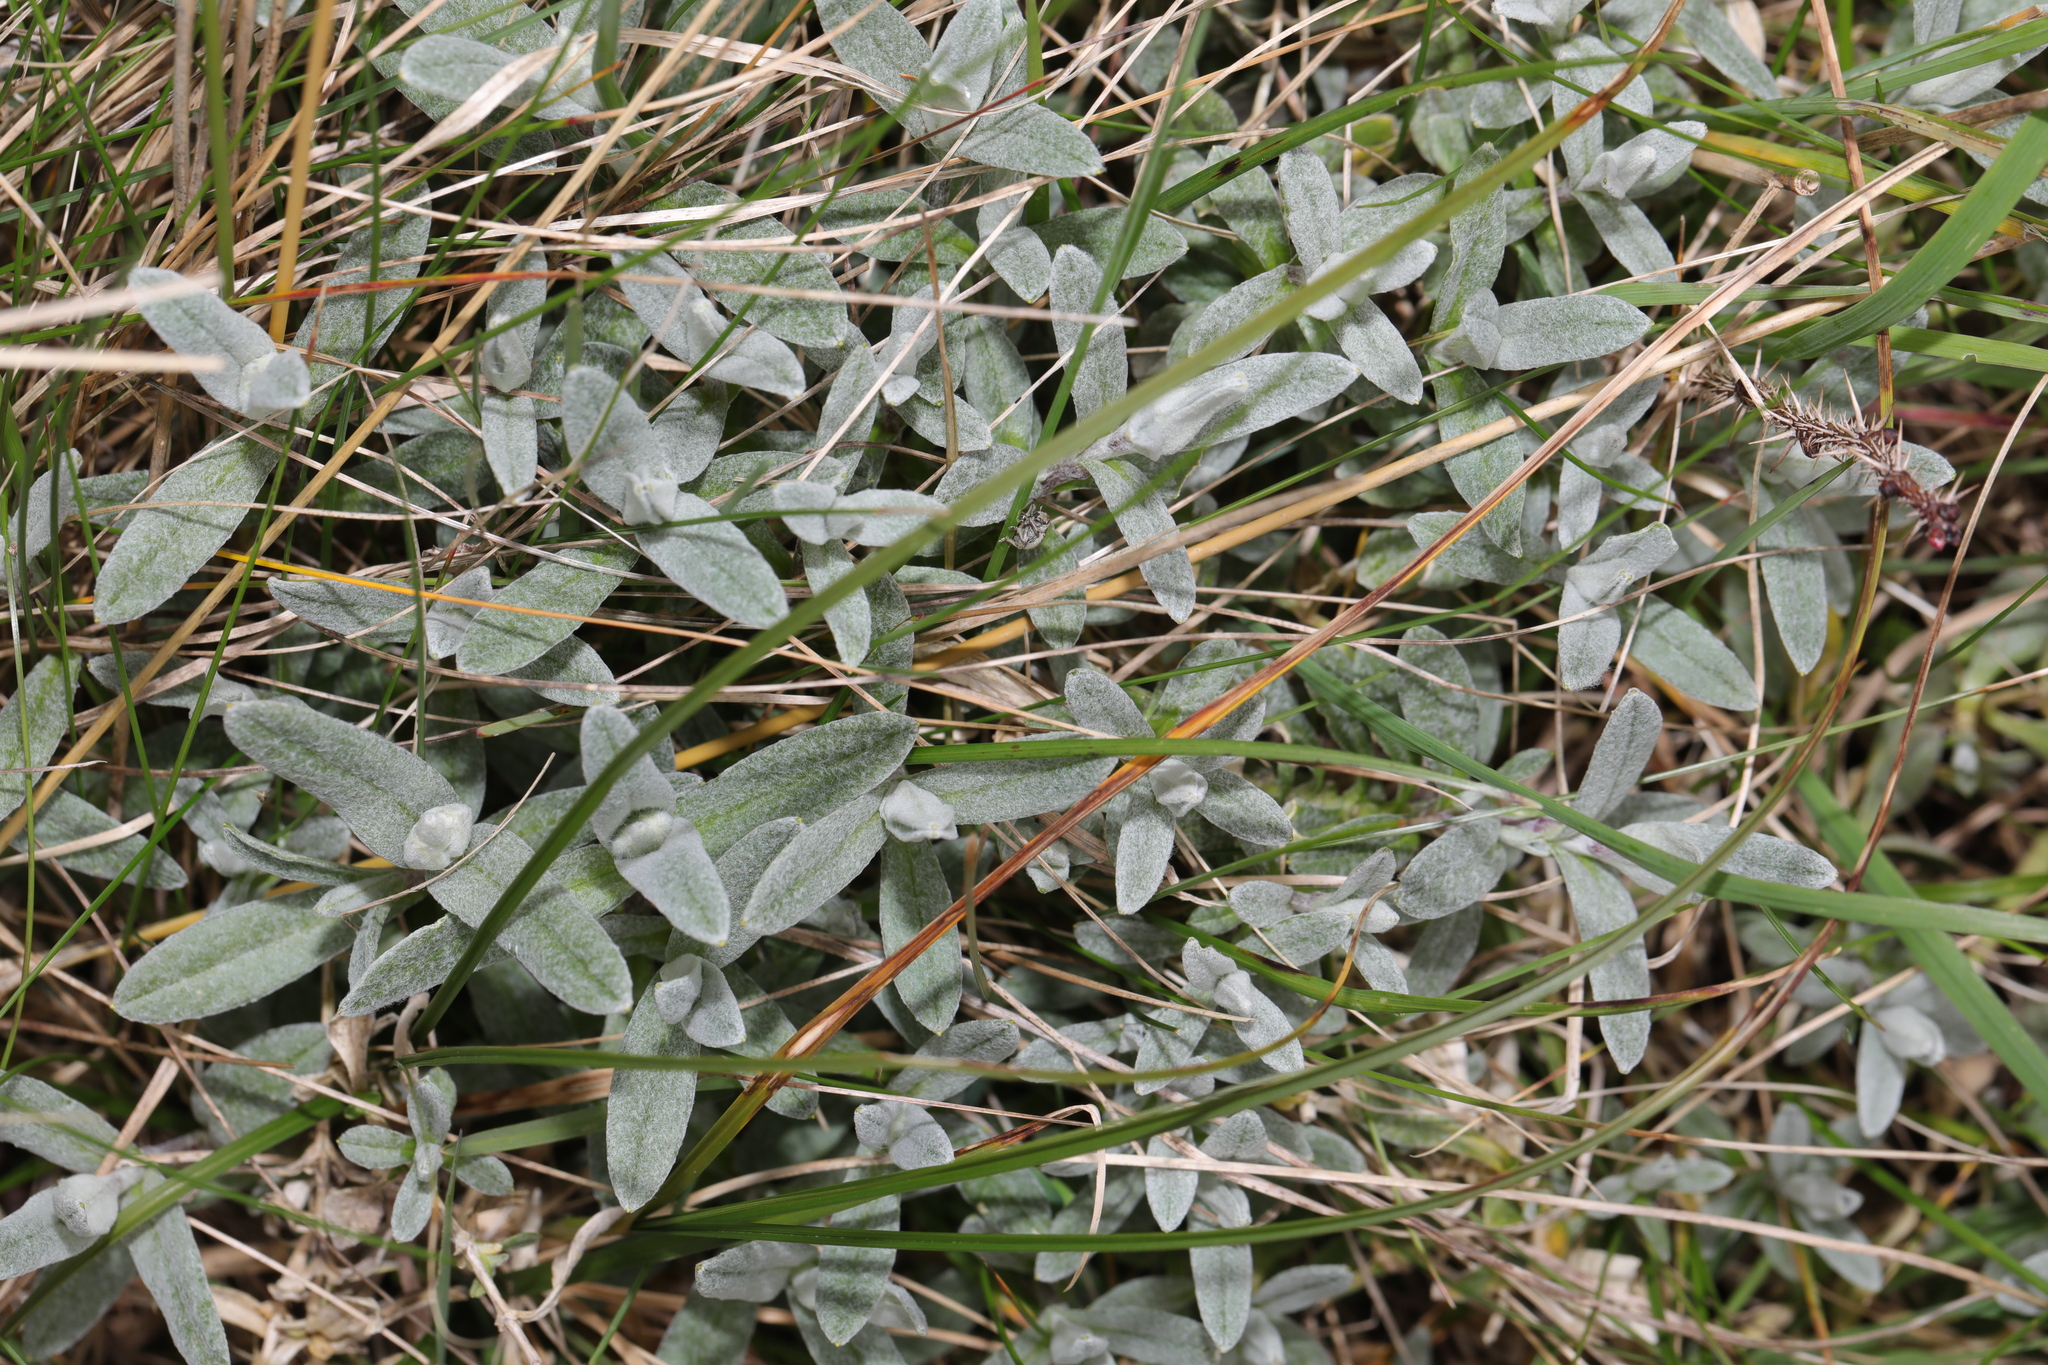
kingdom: Plantae
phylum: Tracheophyta
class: Magnoliopsida
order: Caryophyllales
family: Caryophyllaceae
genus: Cerastium
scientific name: Cerastium tomentosum
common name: Snow-in-summer
